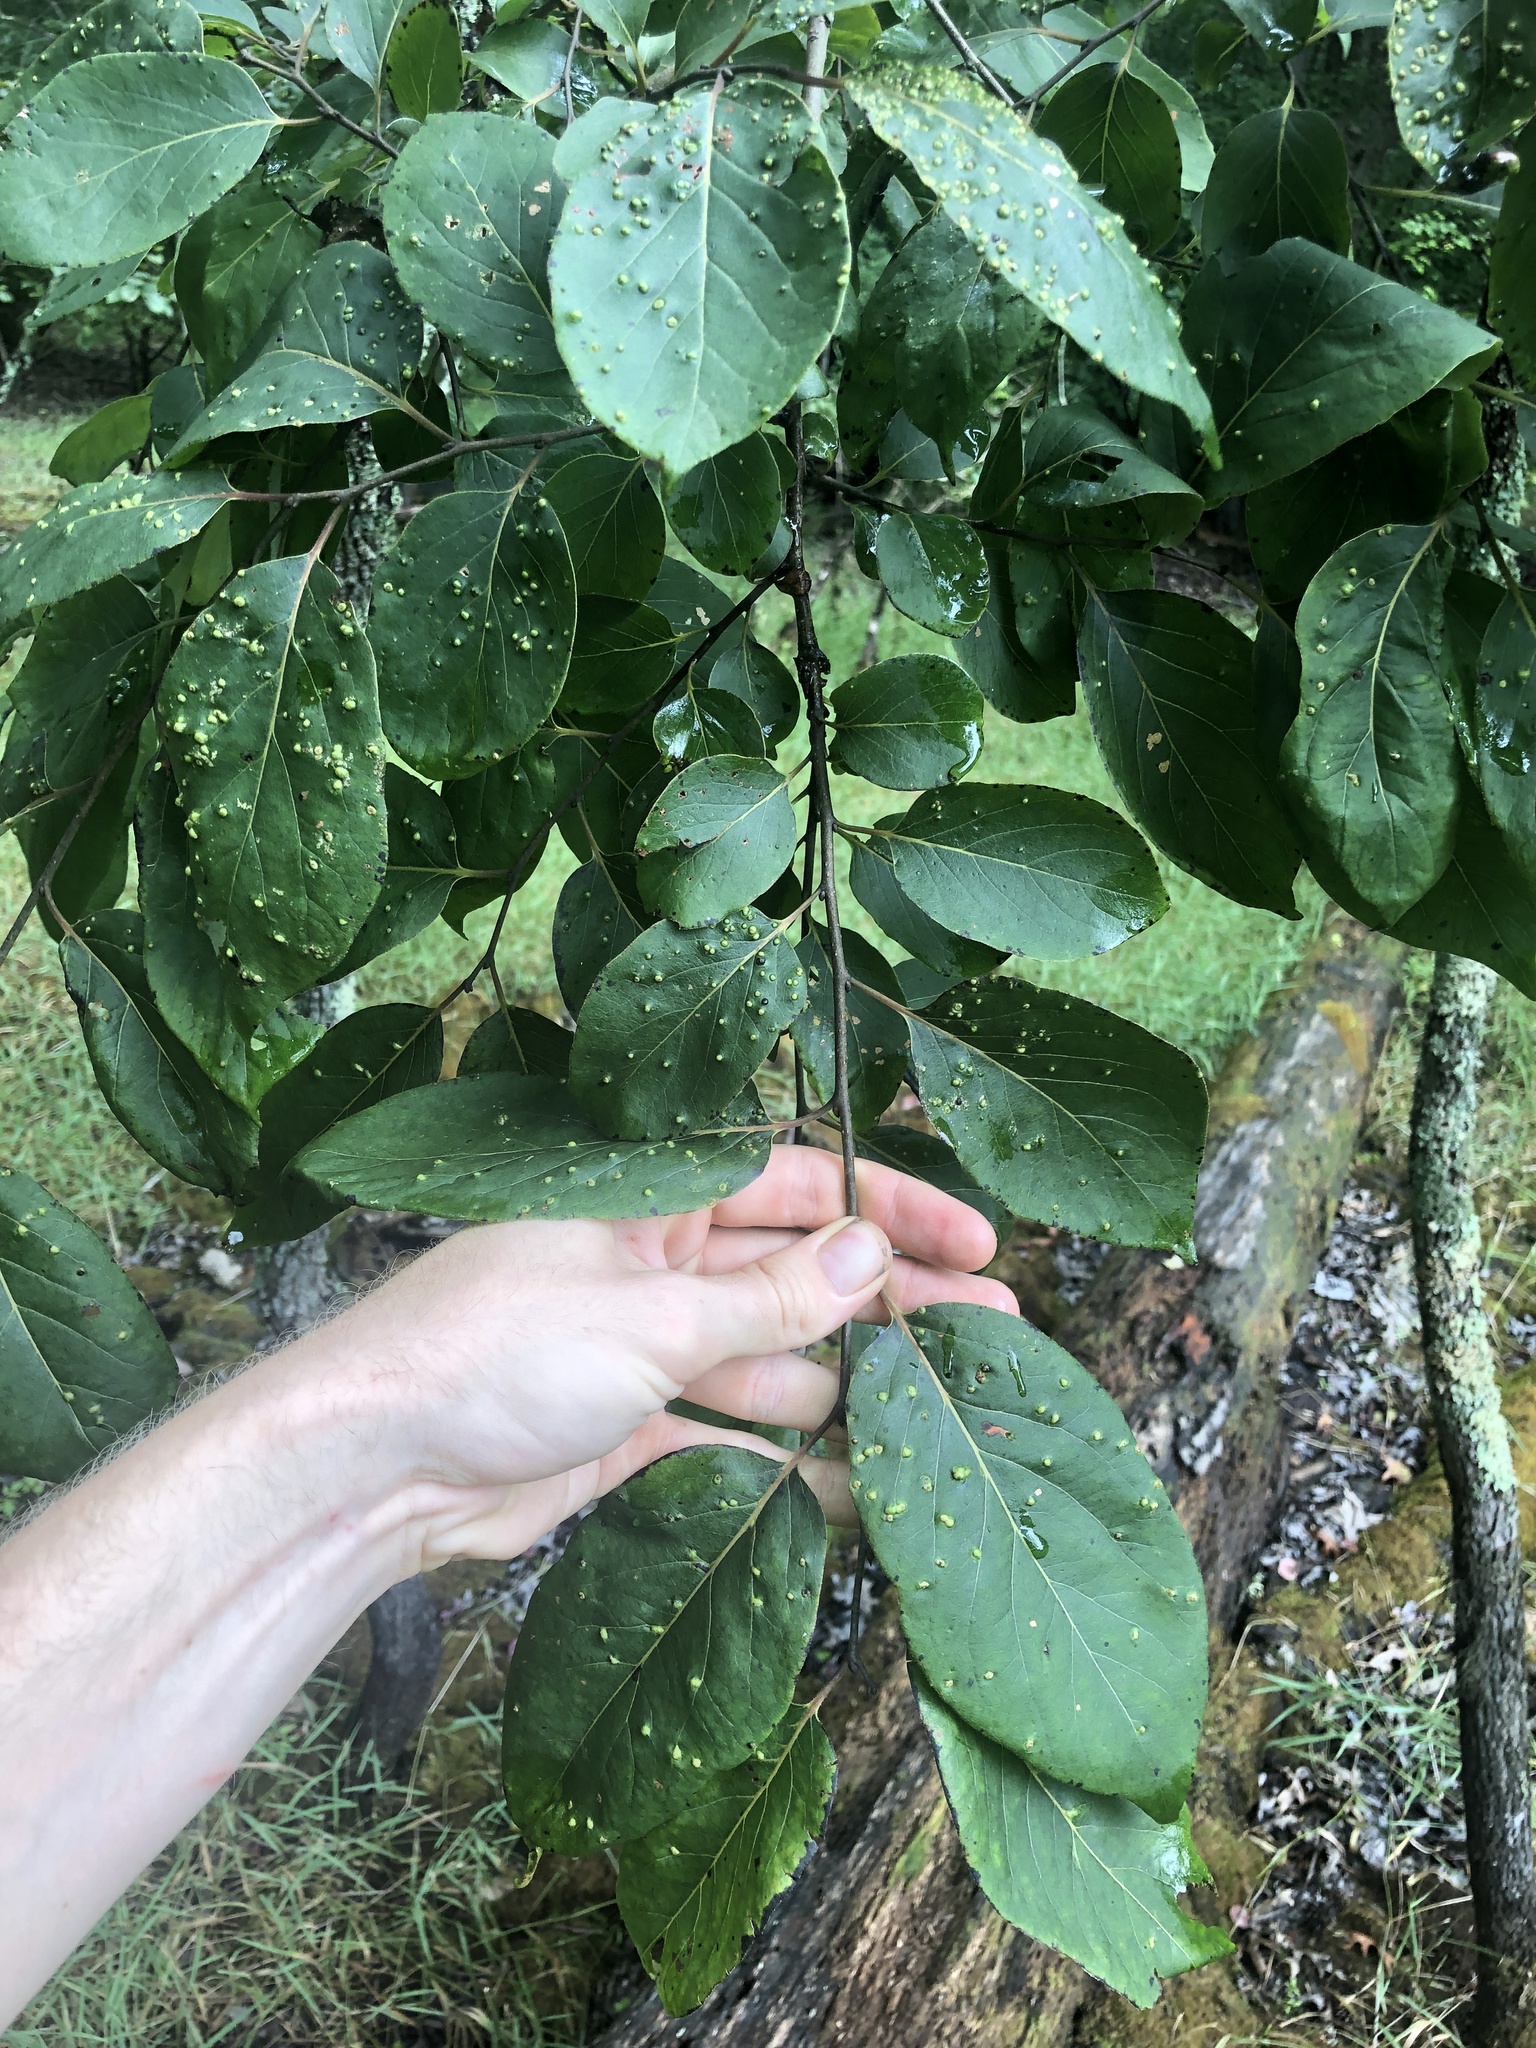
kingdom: Plantae
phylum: Tracheophyta
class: Magnoliopsida
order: Ericales
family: Ebenaceae
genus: Diospyros
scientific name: Diospyros virginiana
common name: Persimmon
